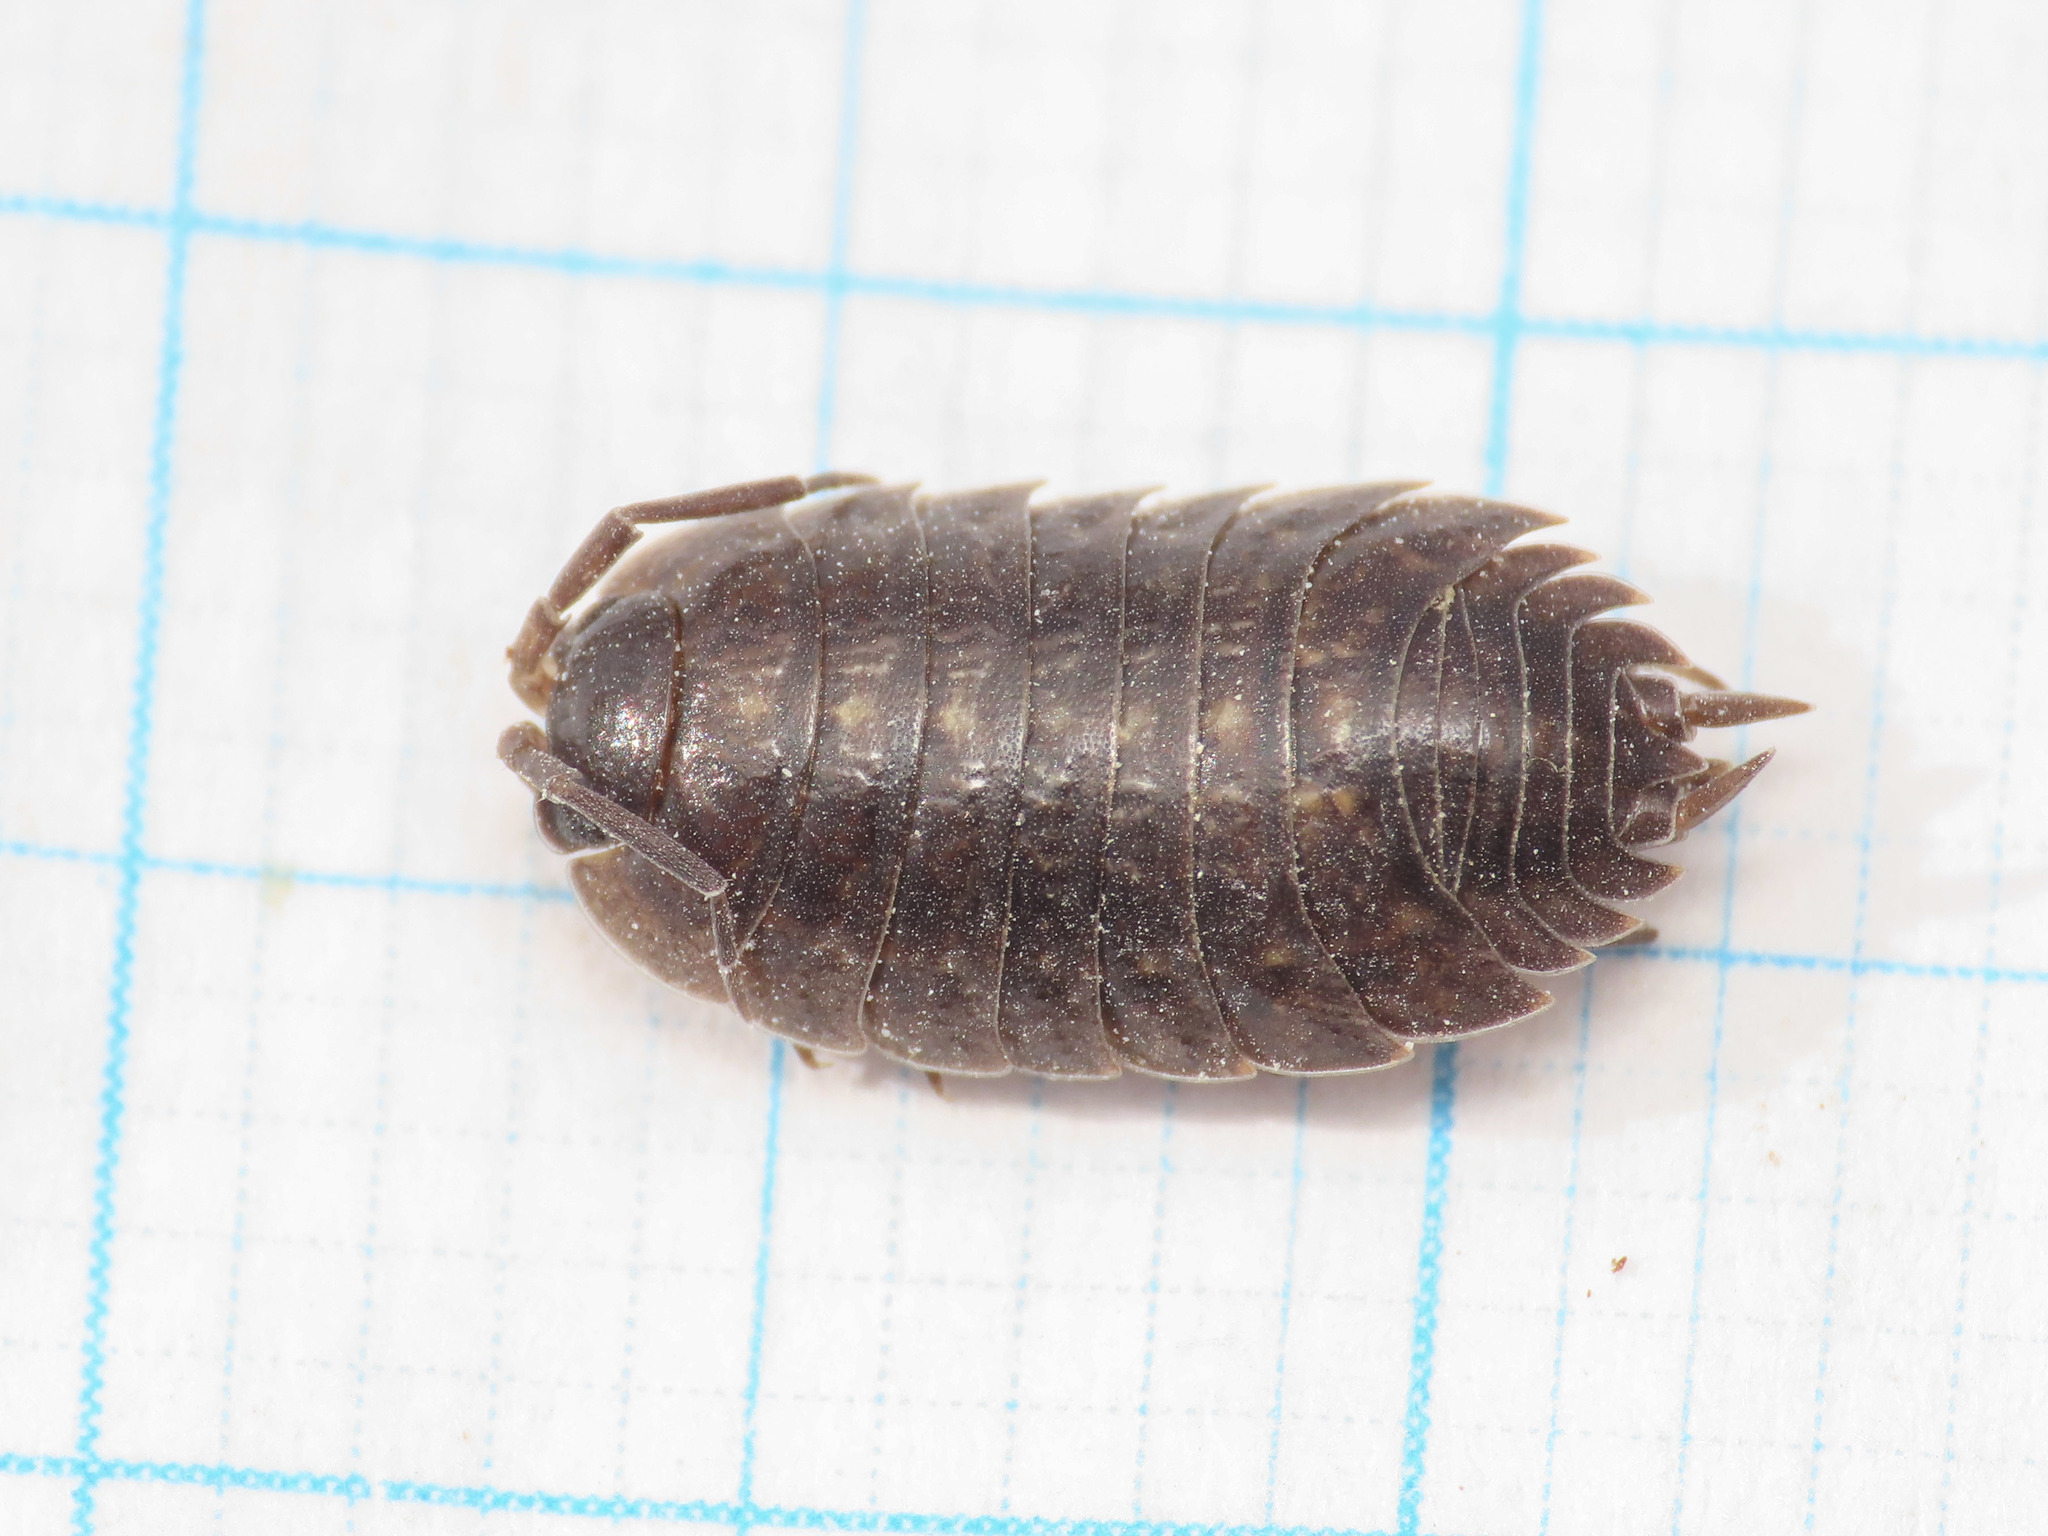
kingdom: Animalia
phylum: Arthropoda
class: Malacostraca
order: Isopoda
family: Porcellionidae
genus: Porcellio
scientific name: Porcellio pumicatus
